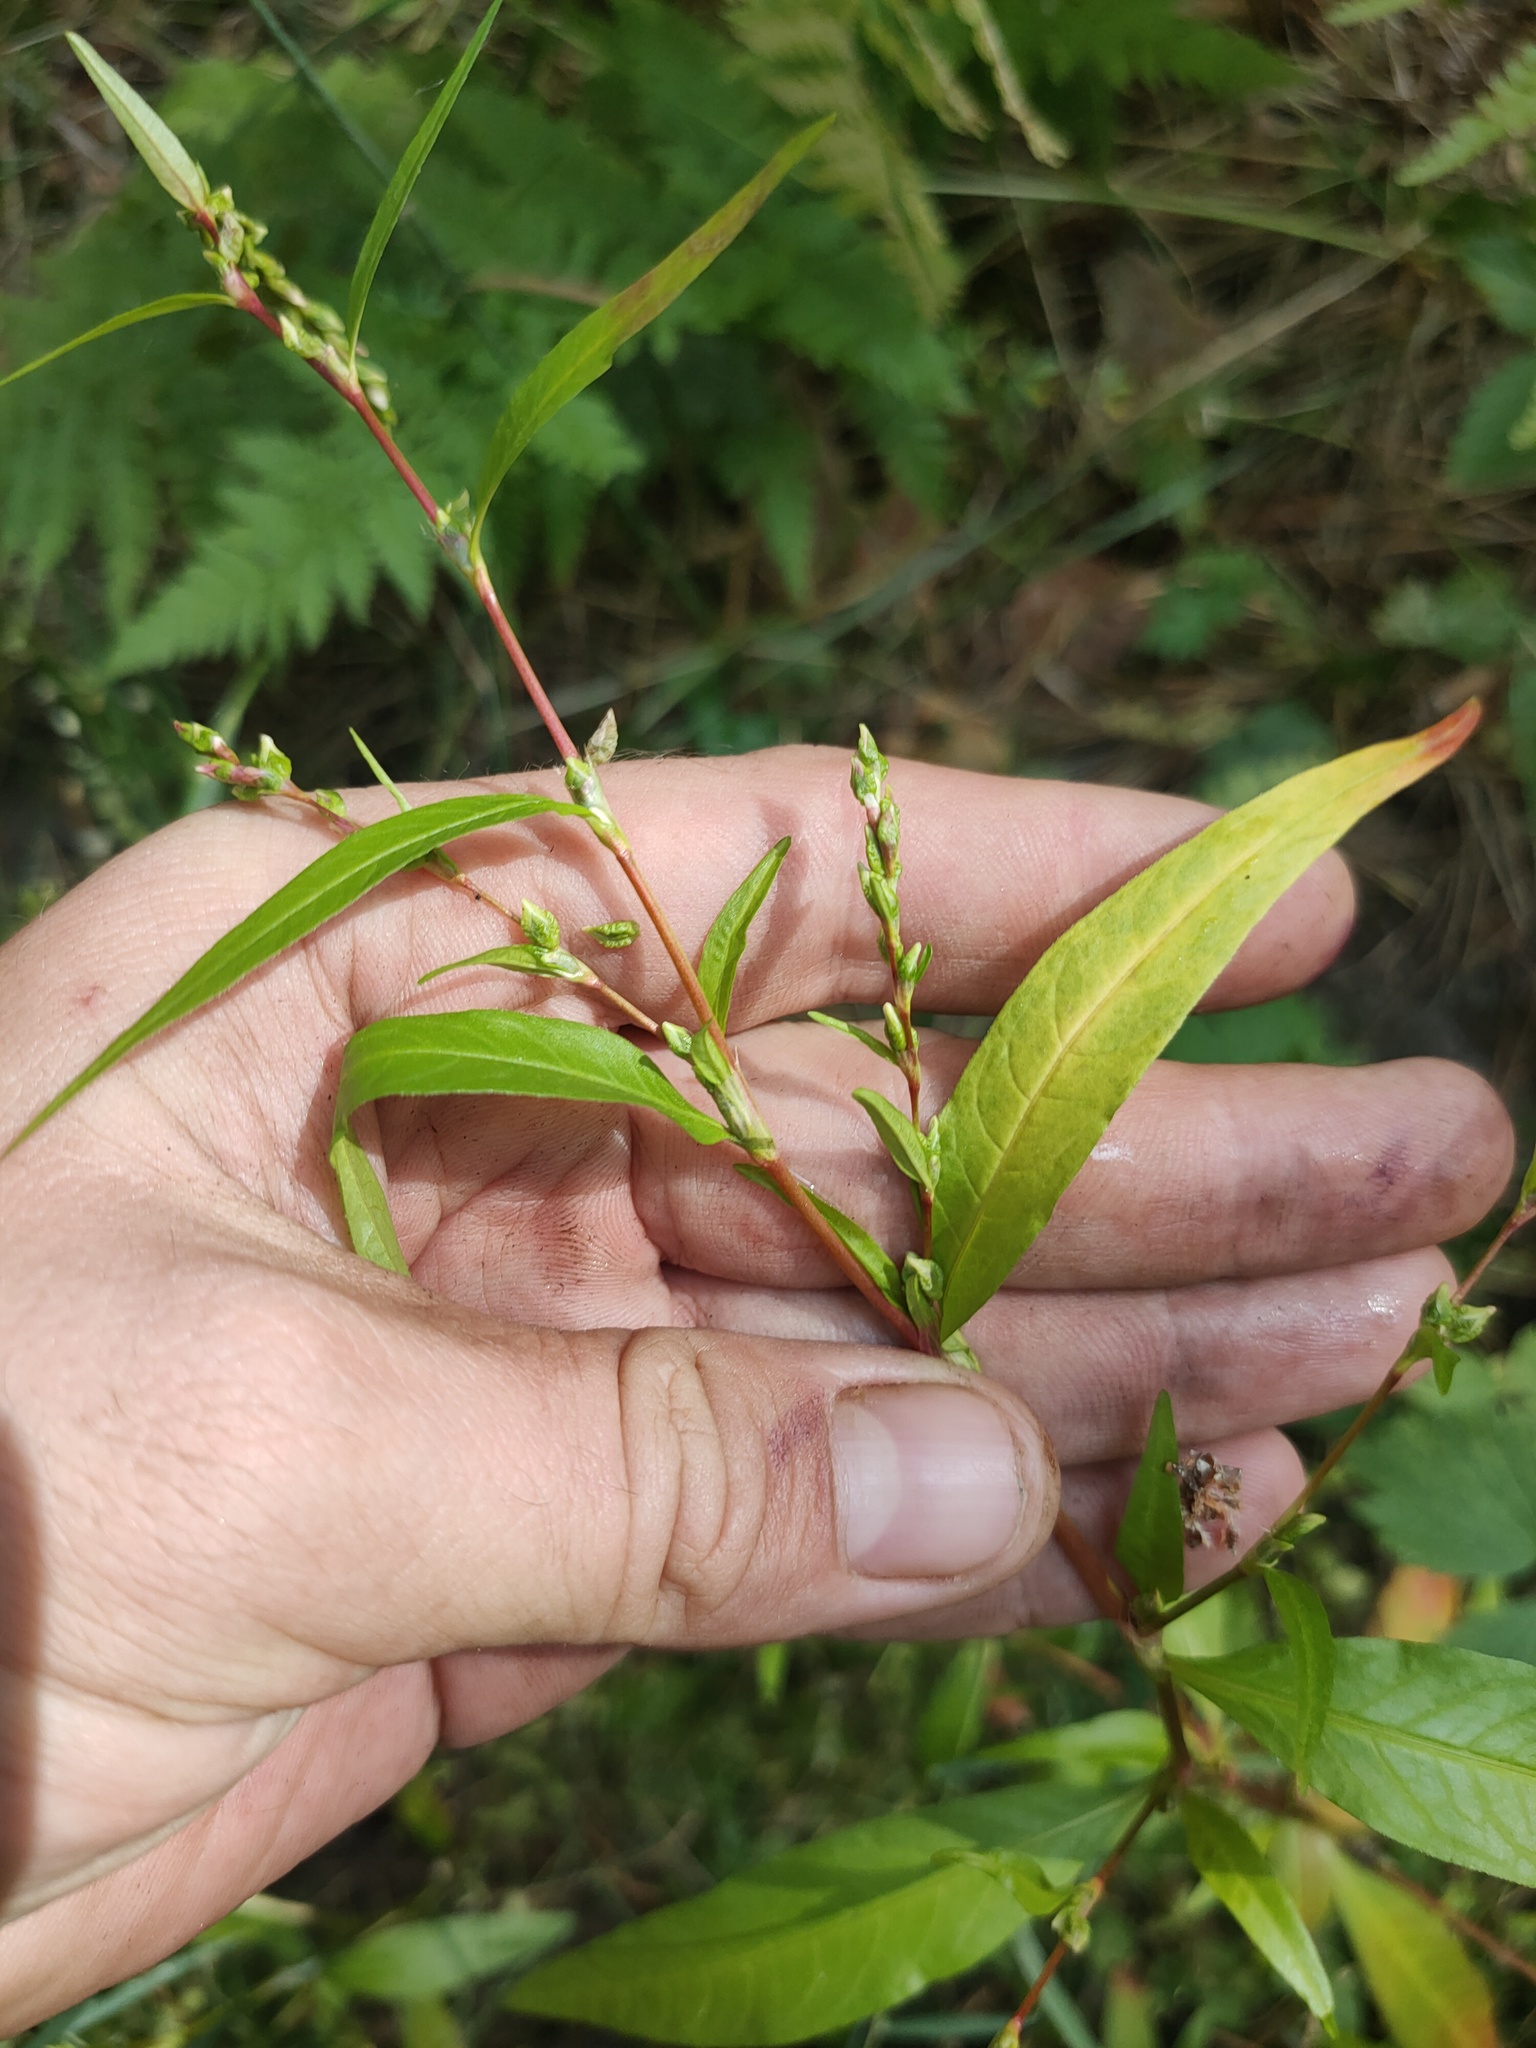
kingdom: Plantae
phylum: Tracheophyta
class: Magnoliopsida
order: Caryophyllales
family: Polygonaceae
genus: Persicaria
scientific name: Persicaria hydropiper
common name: Water-pepper
